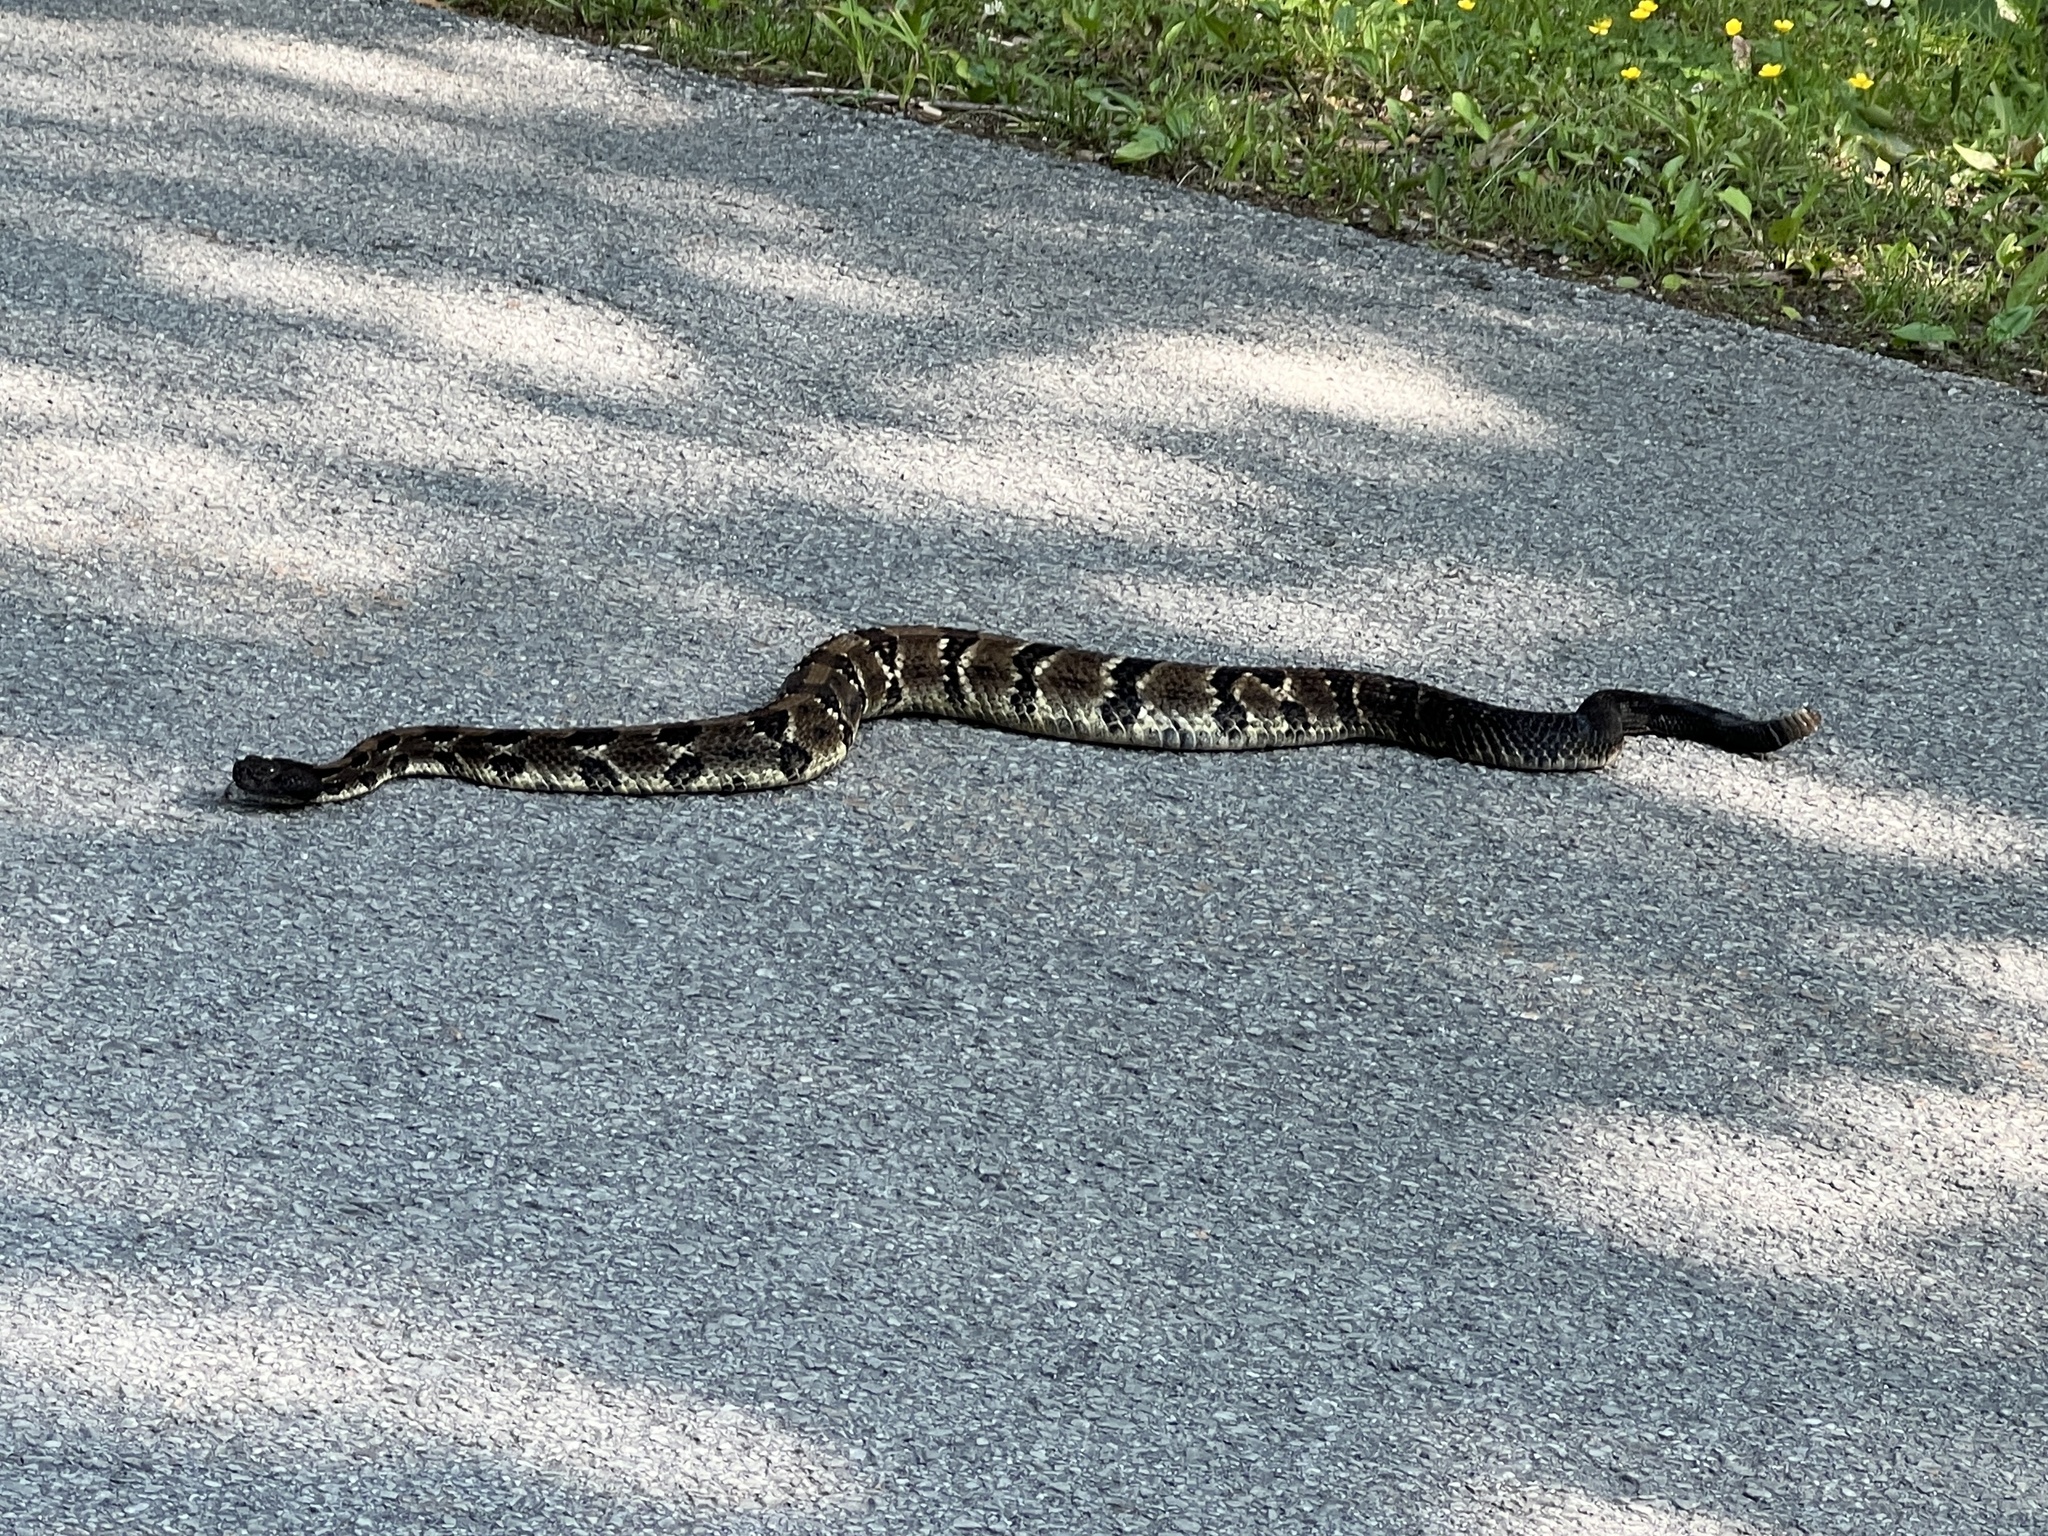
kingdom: Animalia
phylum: Chordata
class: Squamata
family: Viperidae
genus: Crotalus
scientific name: Crotalus horridus
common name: Timber rattlesnake
